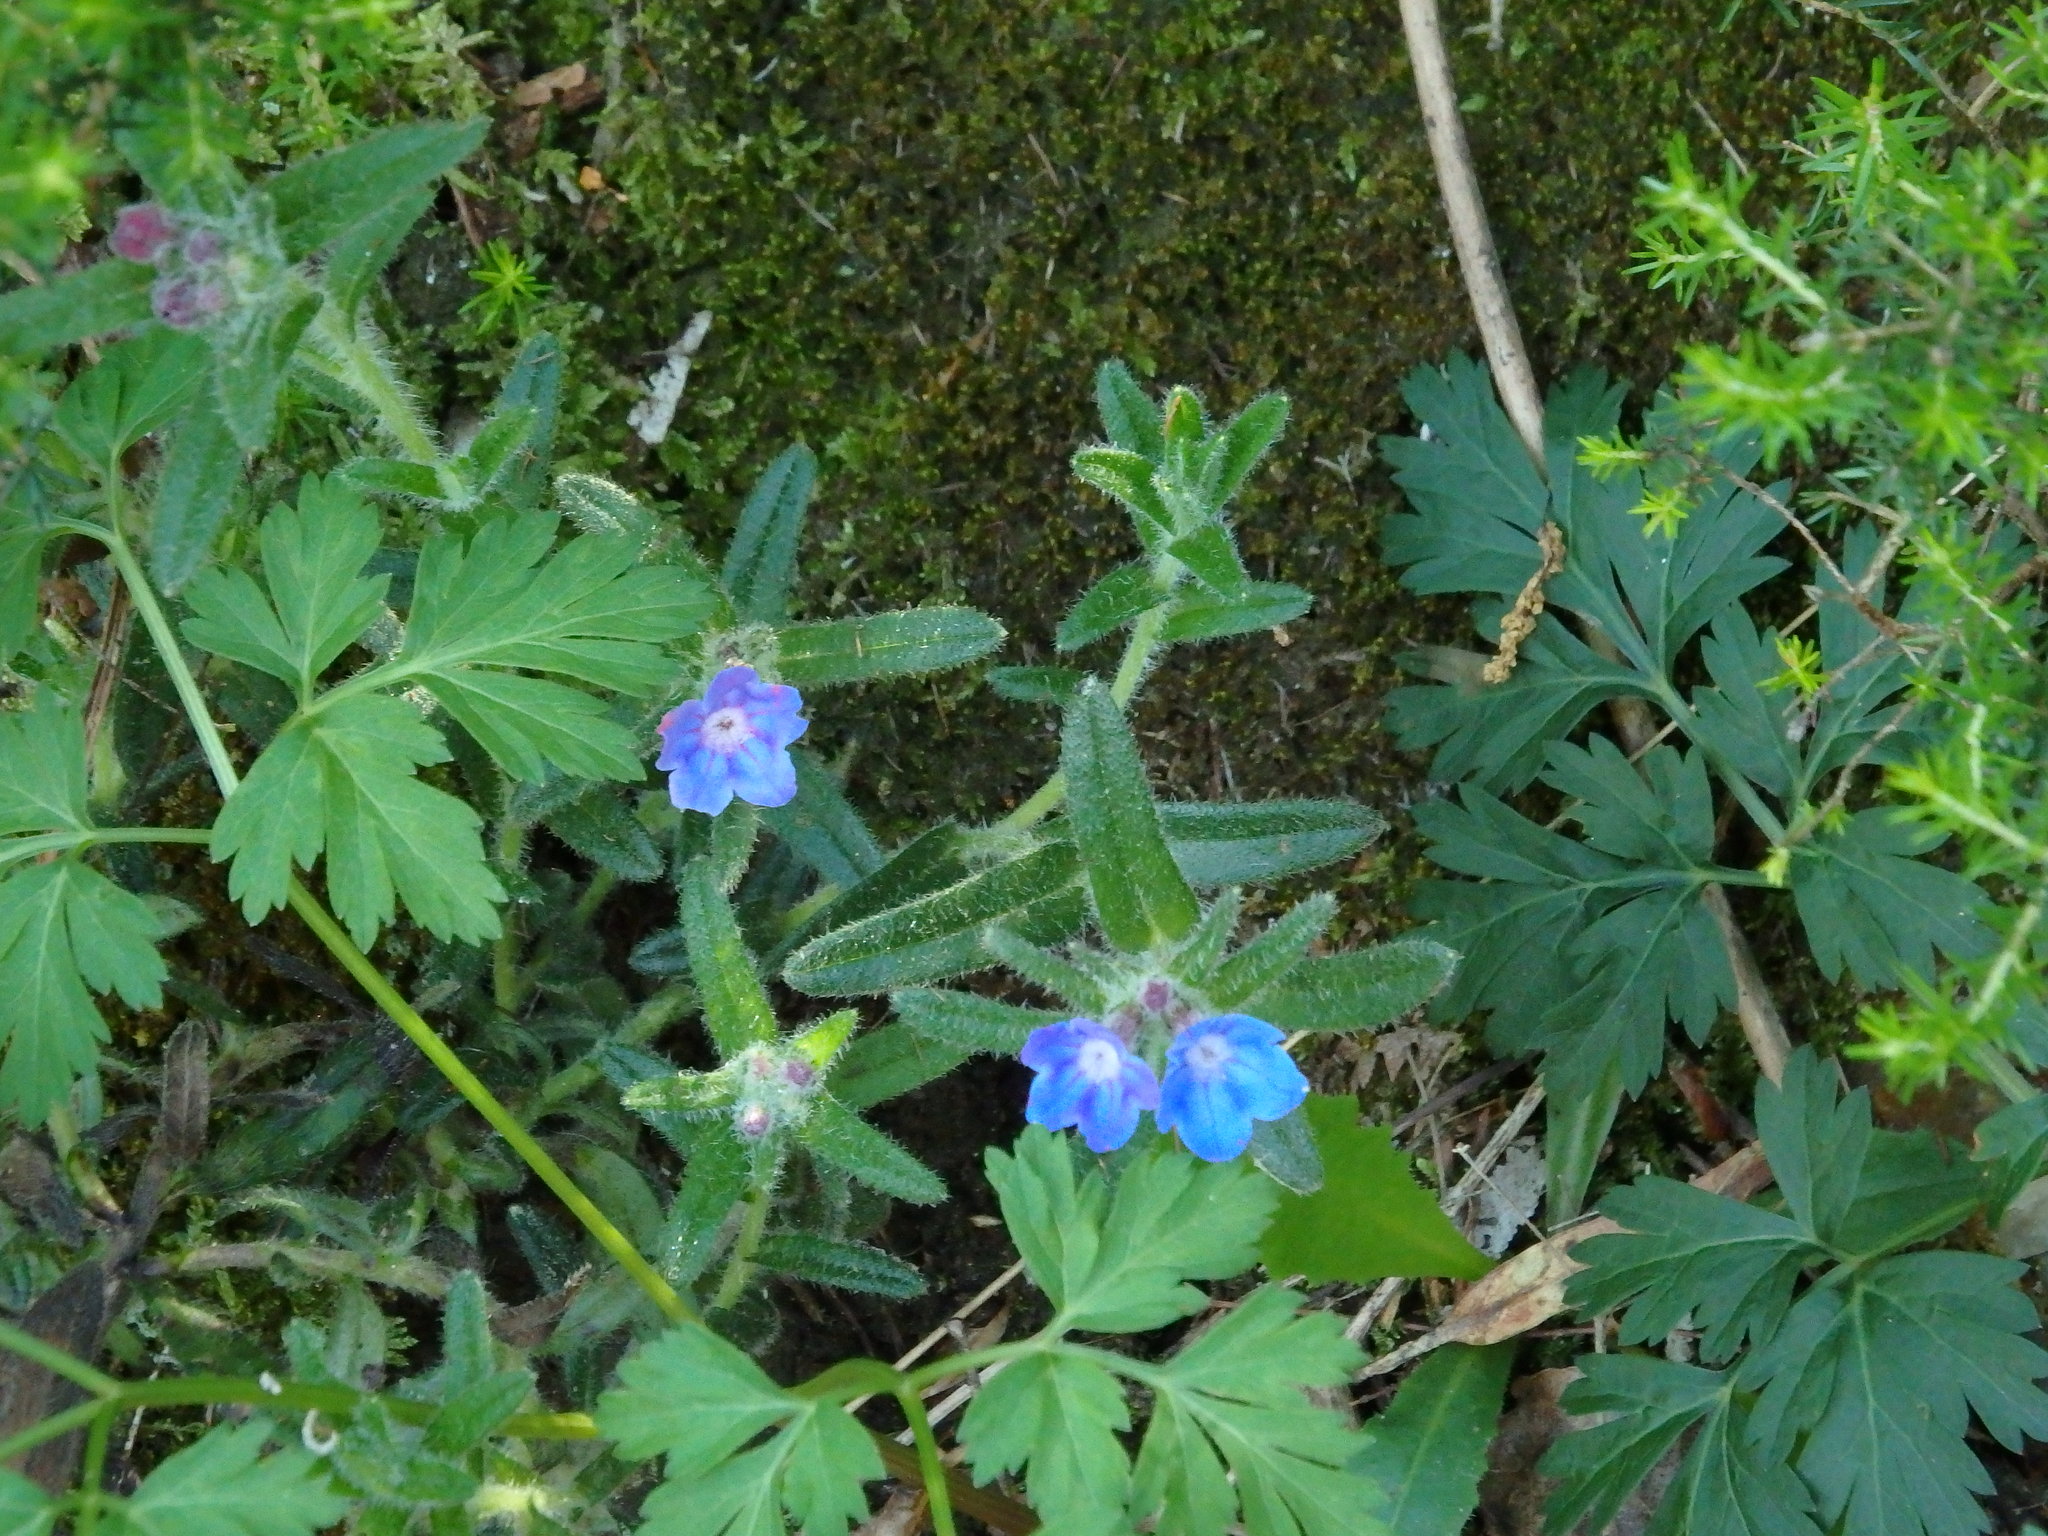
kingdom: Plantae
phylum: Tracheophyta
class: Magnoliopsida
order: Boraginales
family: Boraginaceae
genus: Glandora
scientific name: Glandora prostrata
